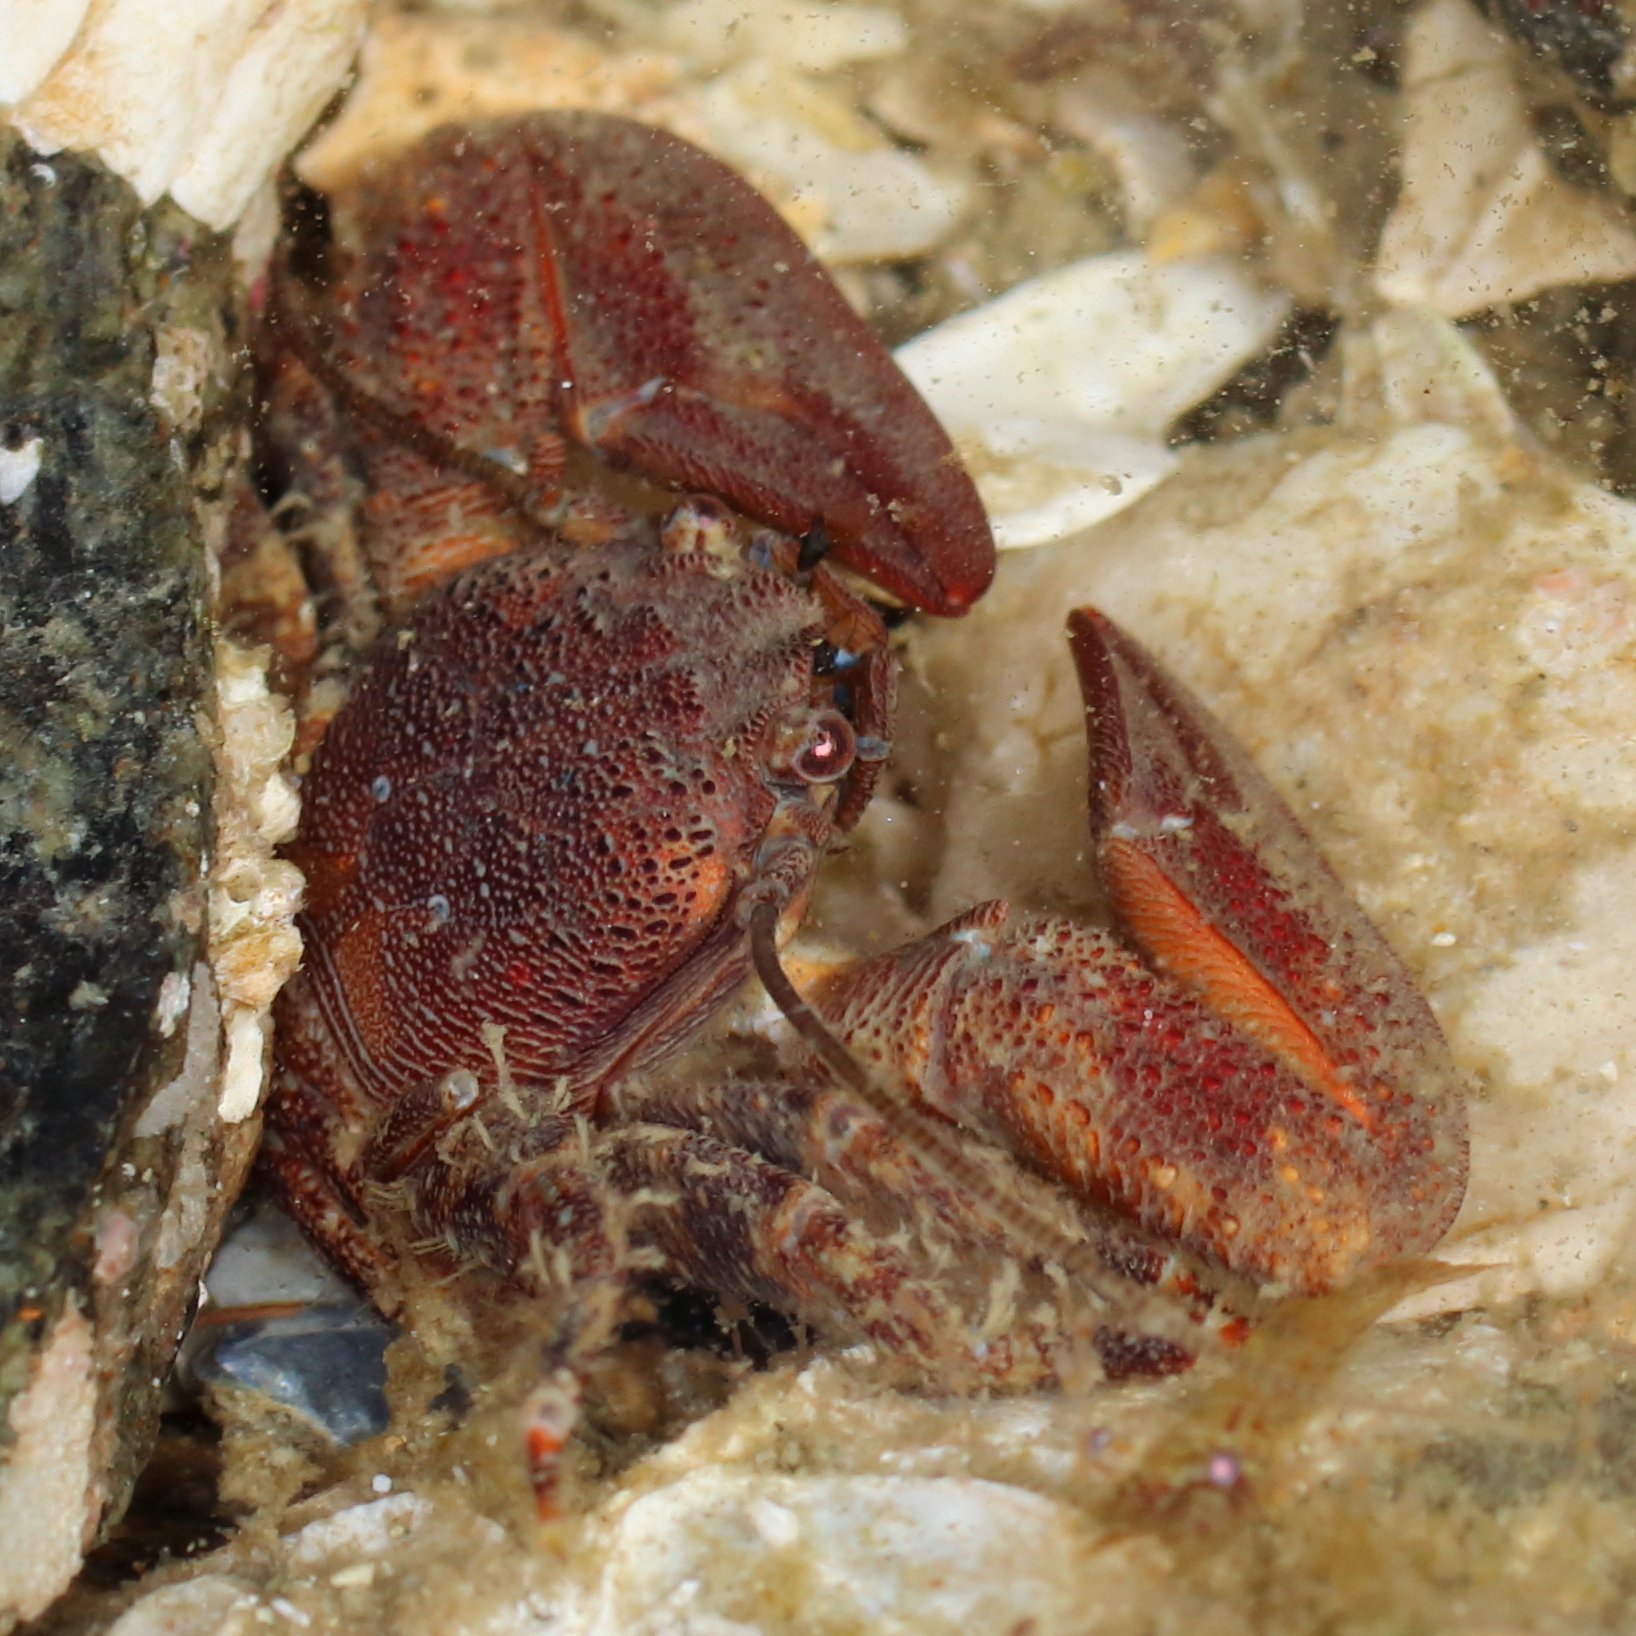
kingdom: Animalia
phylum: Arthropoda
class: Malacostraca
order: Decapoda
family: Porcellanidae
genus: Petrolisthes
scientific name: Petrolisthes eriomerus
